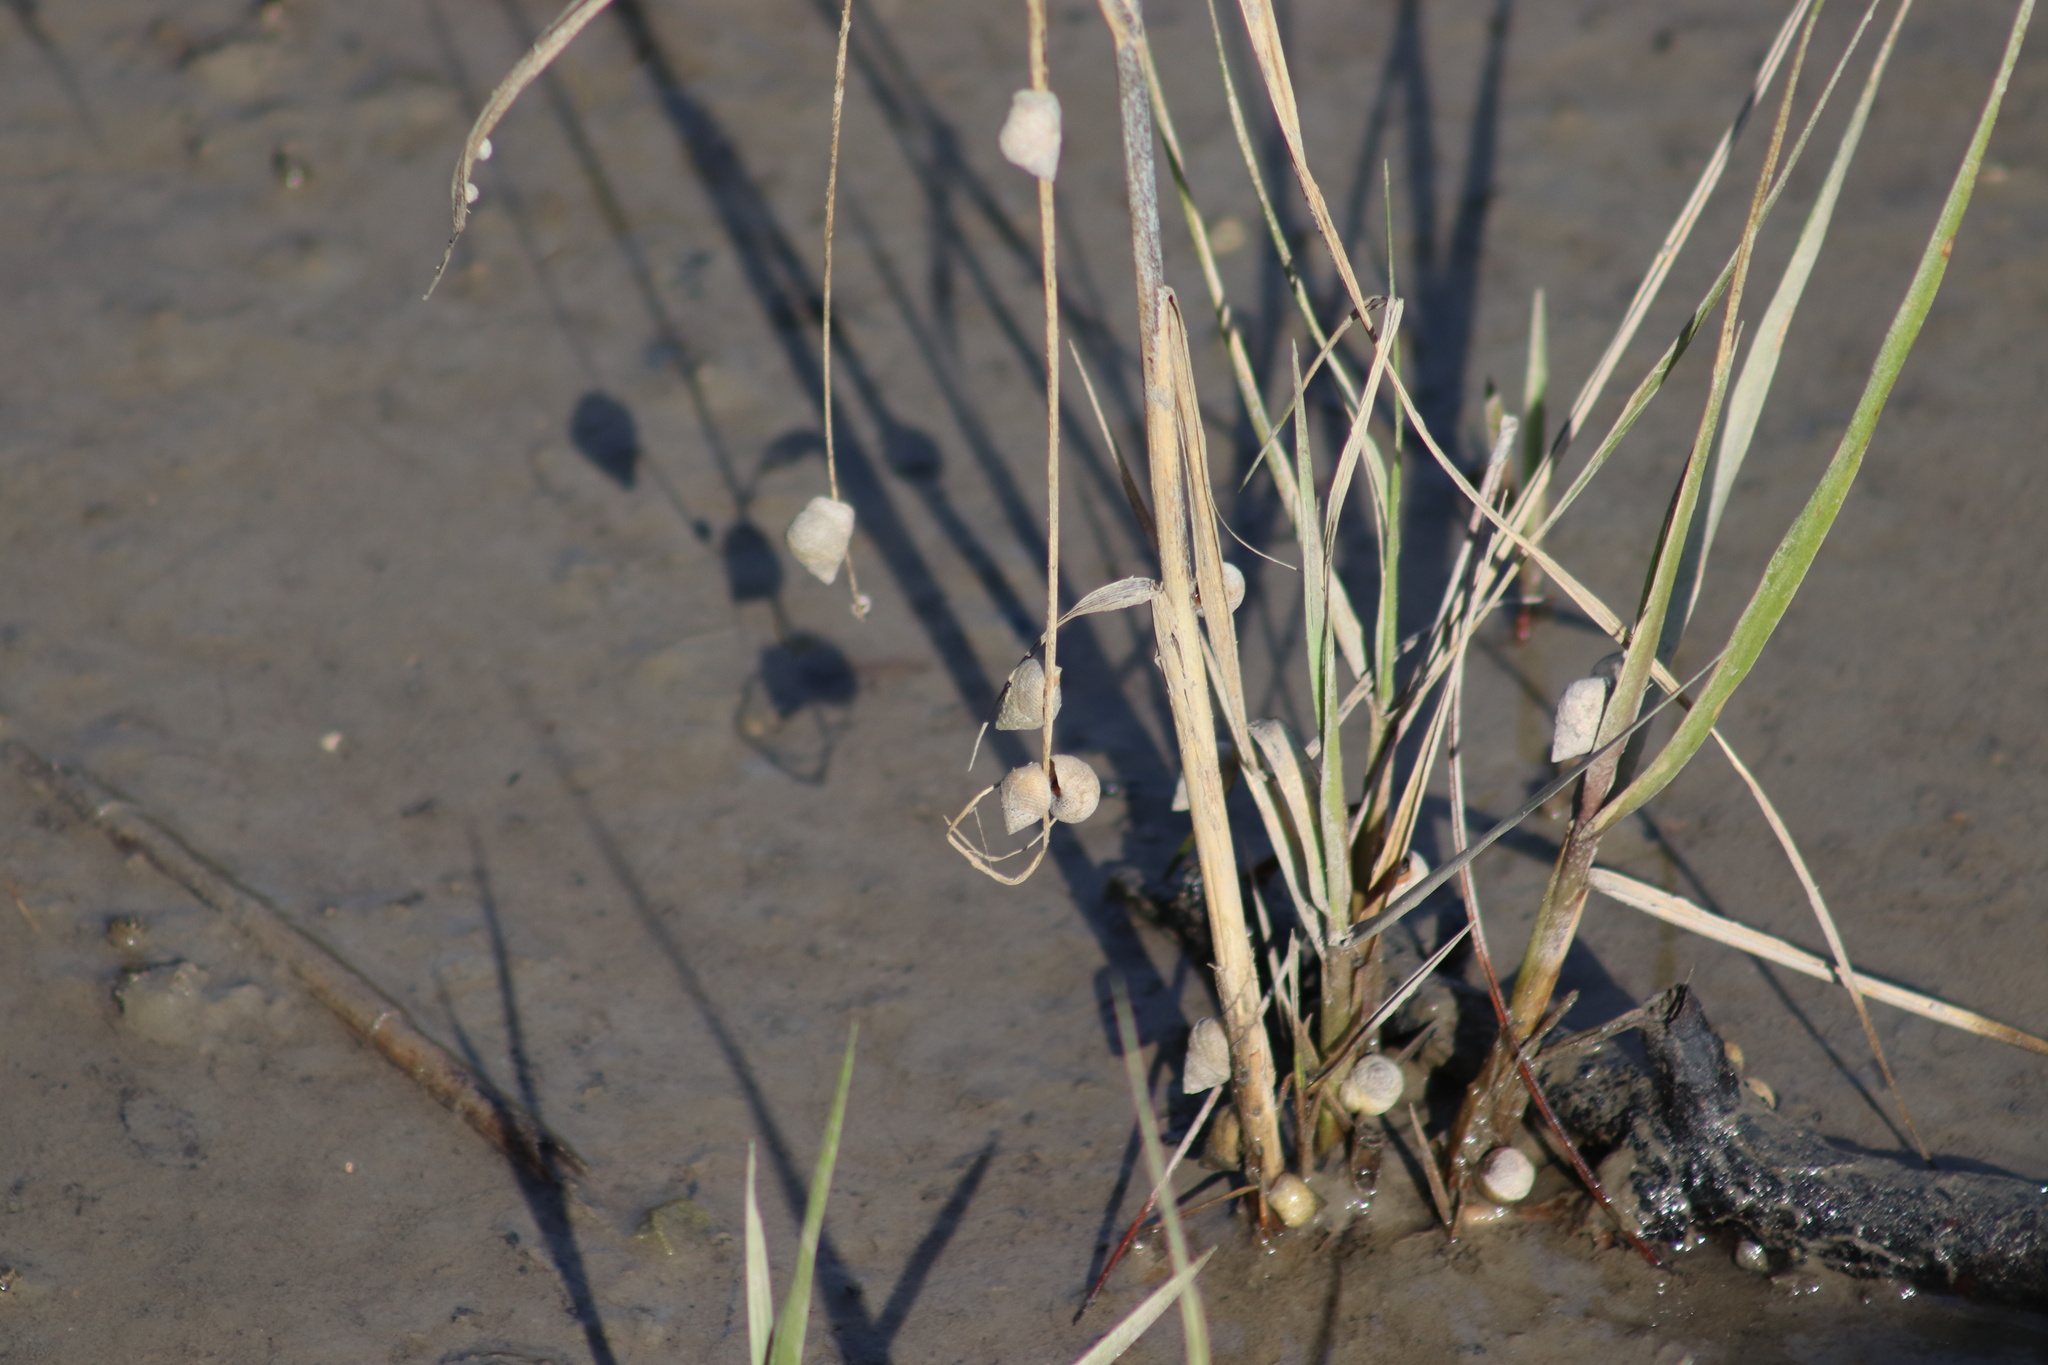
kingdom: Animalia
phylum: Mollusca
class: Gastropoda
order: Littorinimorpha
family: Littorinidae
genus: Littoraria
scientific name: Littoraria irrorata
